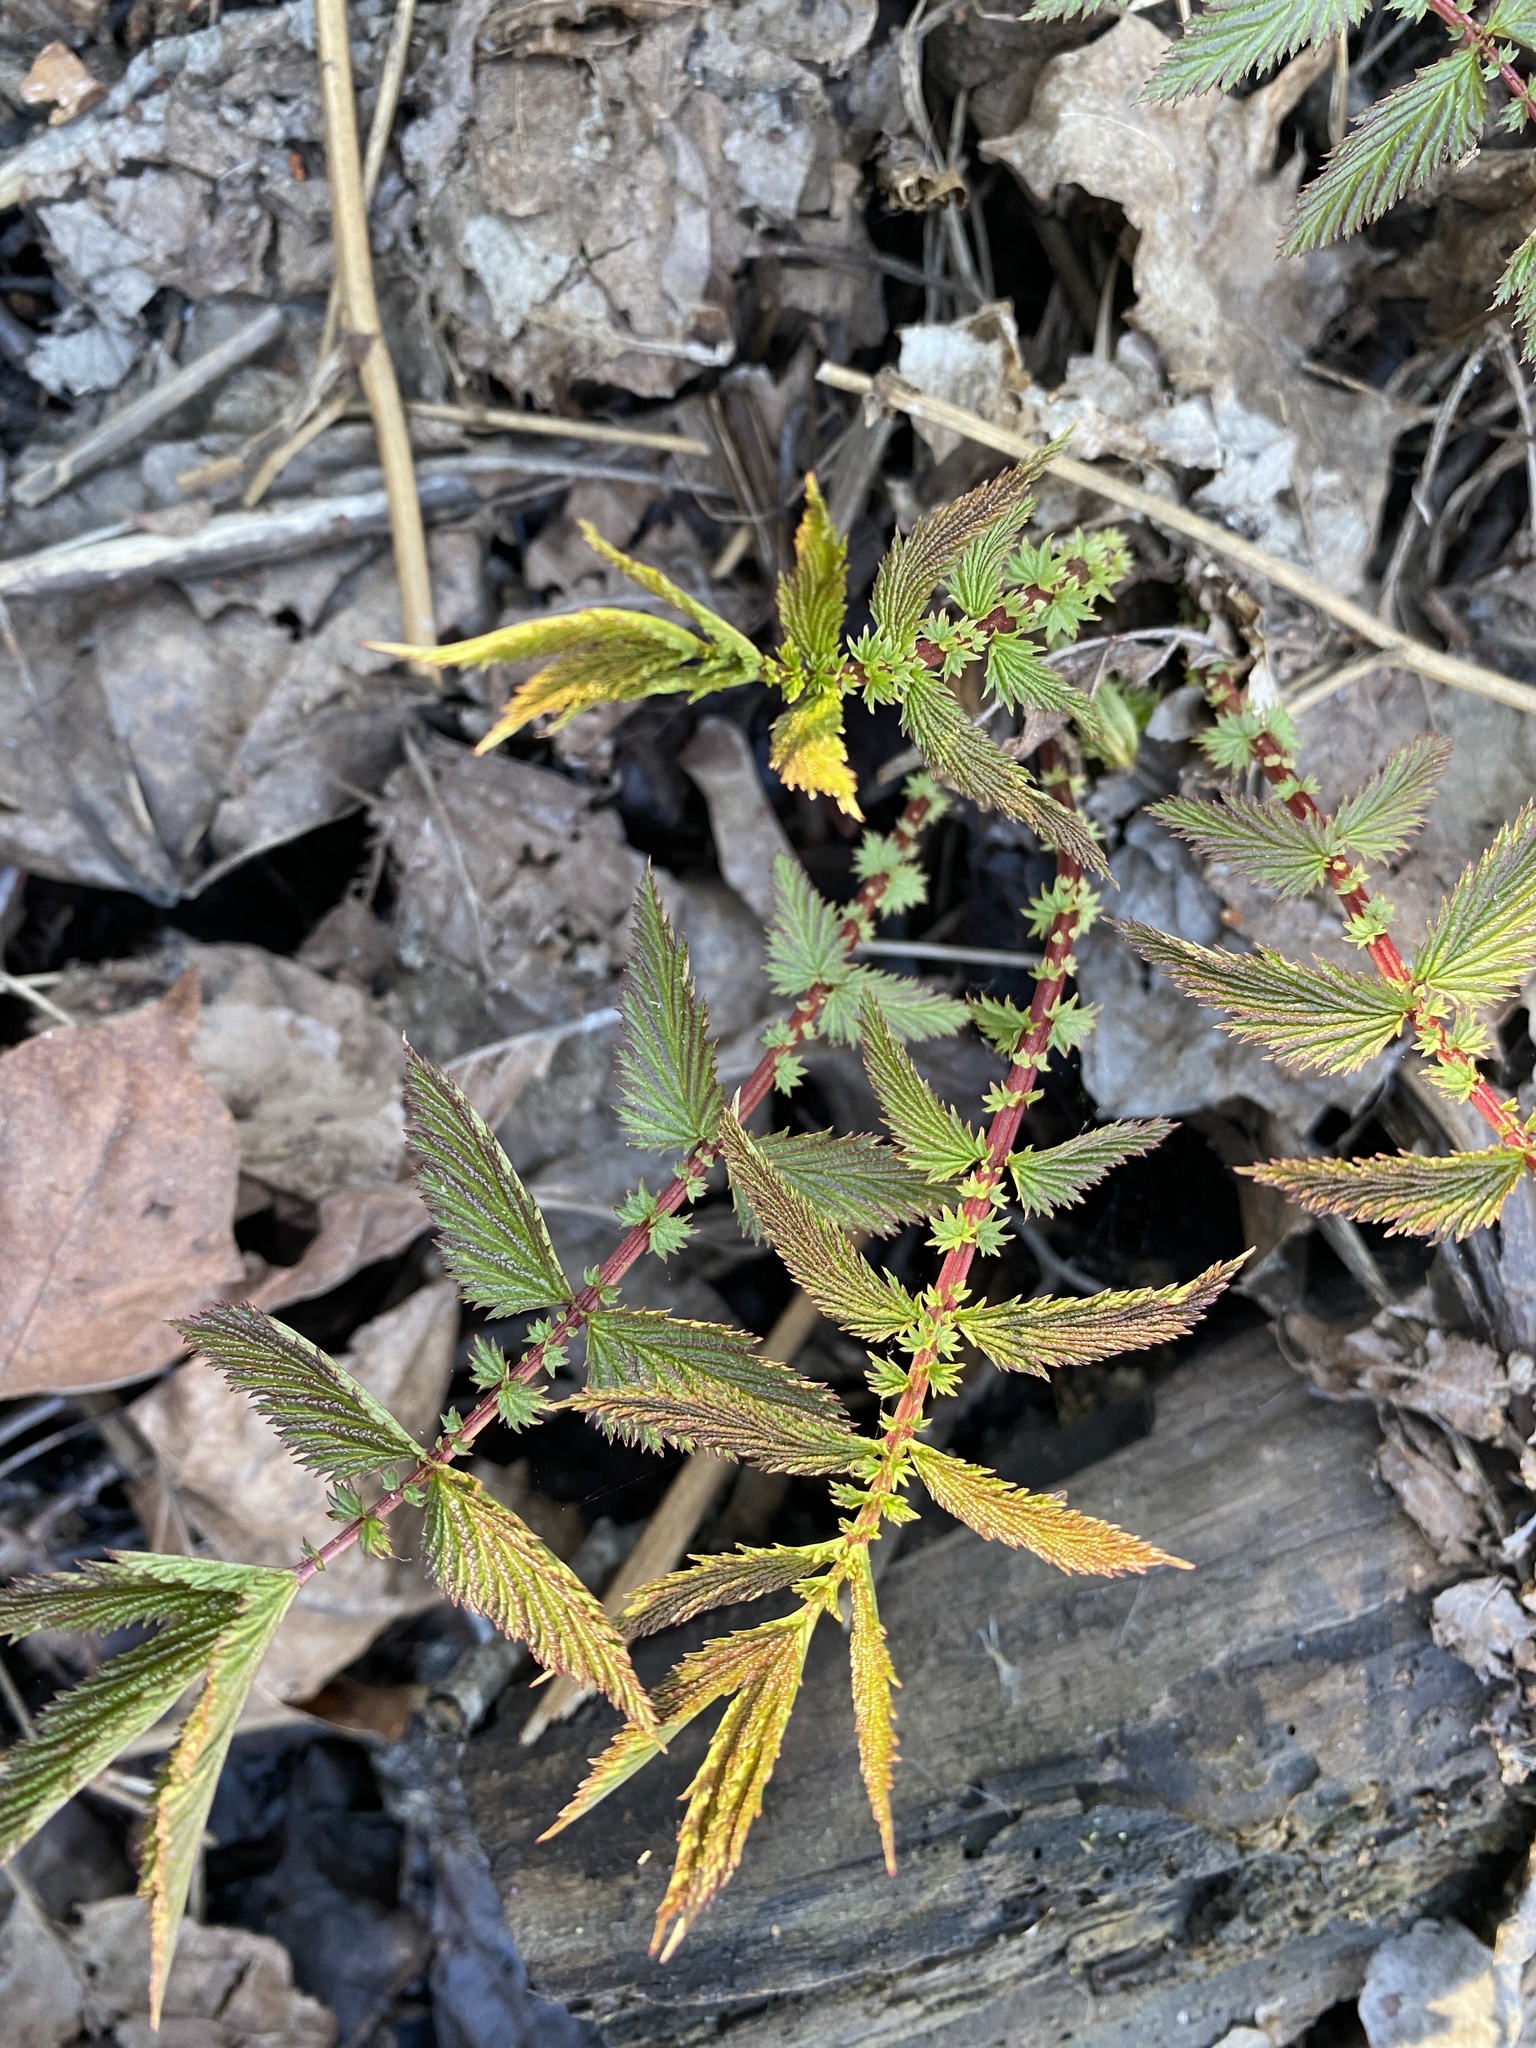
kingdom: Plantae
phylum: Tracheophyta
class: Magnoliopsida
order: Rosales
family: Rosaceae
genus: Filipendula
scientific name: Filipendula ulmaria
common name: Meadowsweet
